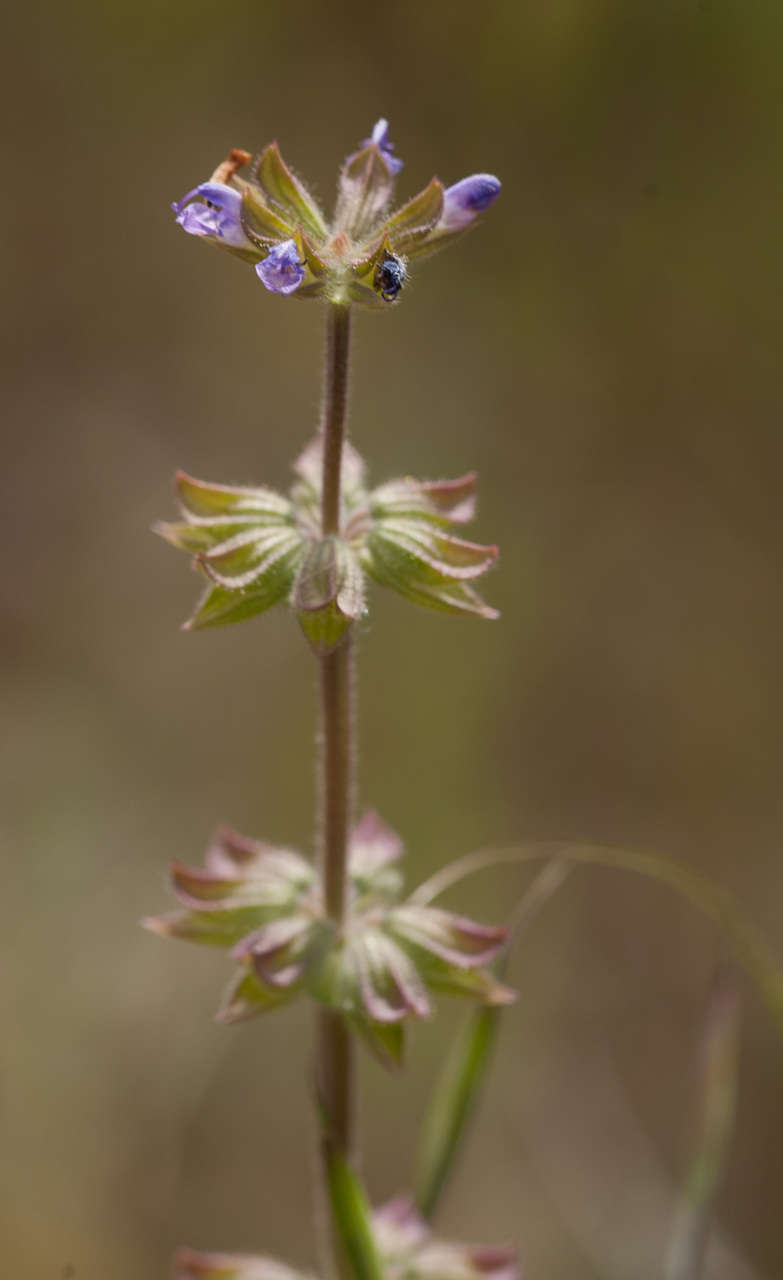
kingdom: Plantae
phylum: Tracheophyta
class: Magnoliopsida
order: Lamiales
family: Lamiaceae
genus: Salvia
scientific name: Salvia verbenaca
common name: Wild clary
